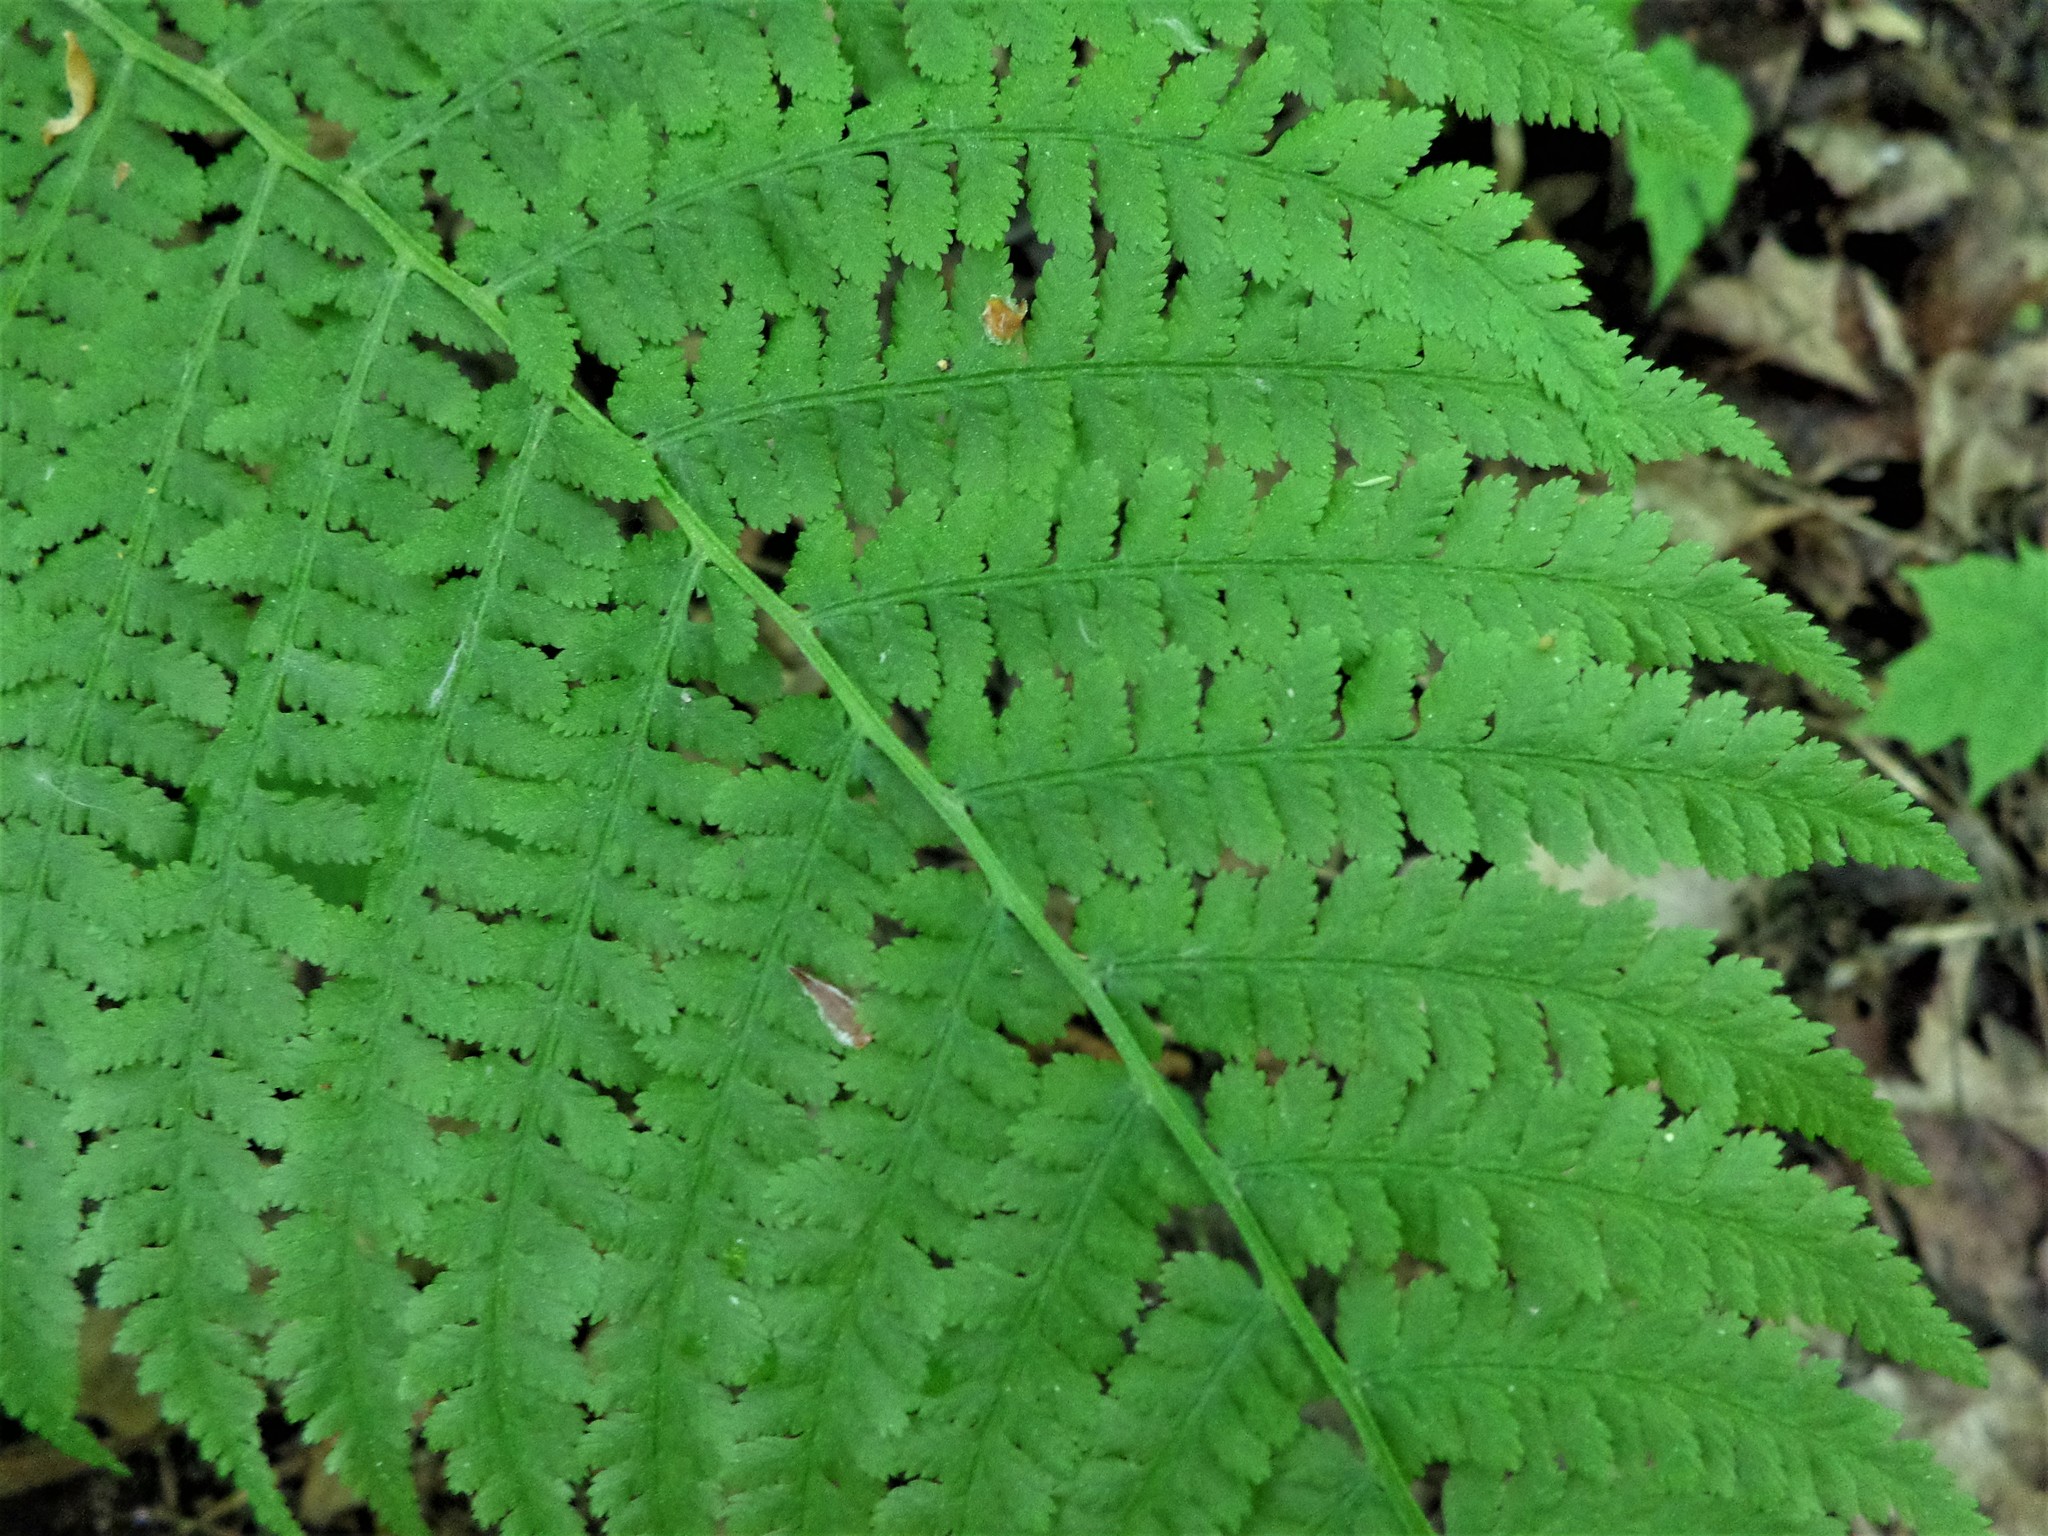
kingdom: Plantae
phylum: Tracheophyta
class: Polypodiopsida
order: Polypodiales
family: Athyriaceae
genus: Athyrium
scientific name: Athyrium filix-femina
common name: Lady fern
